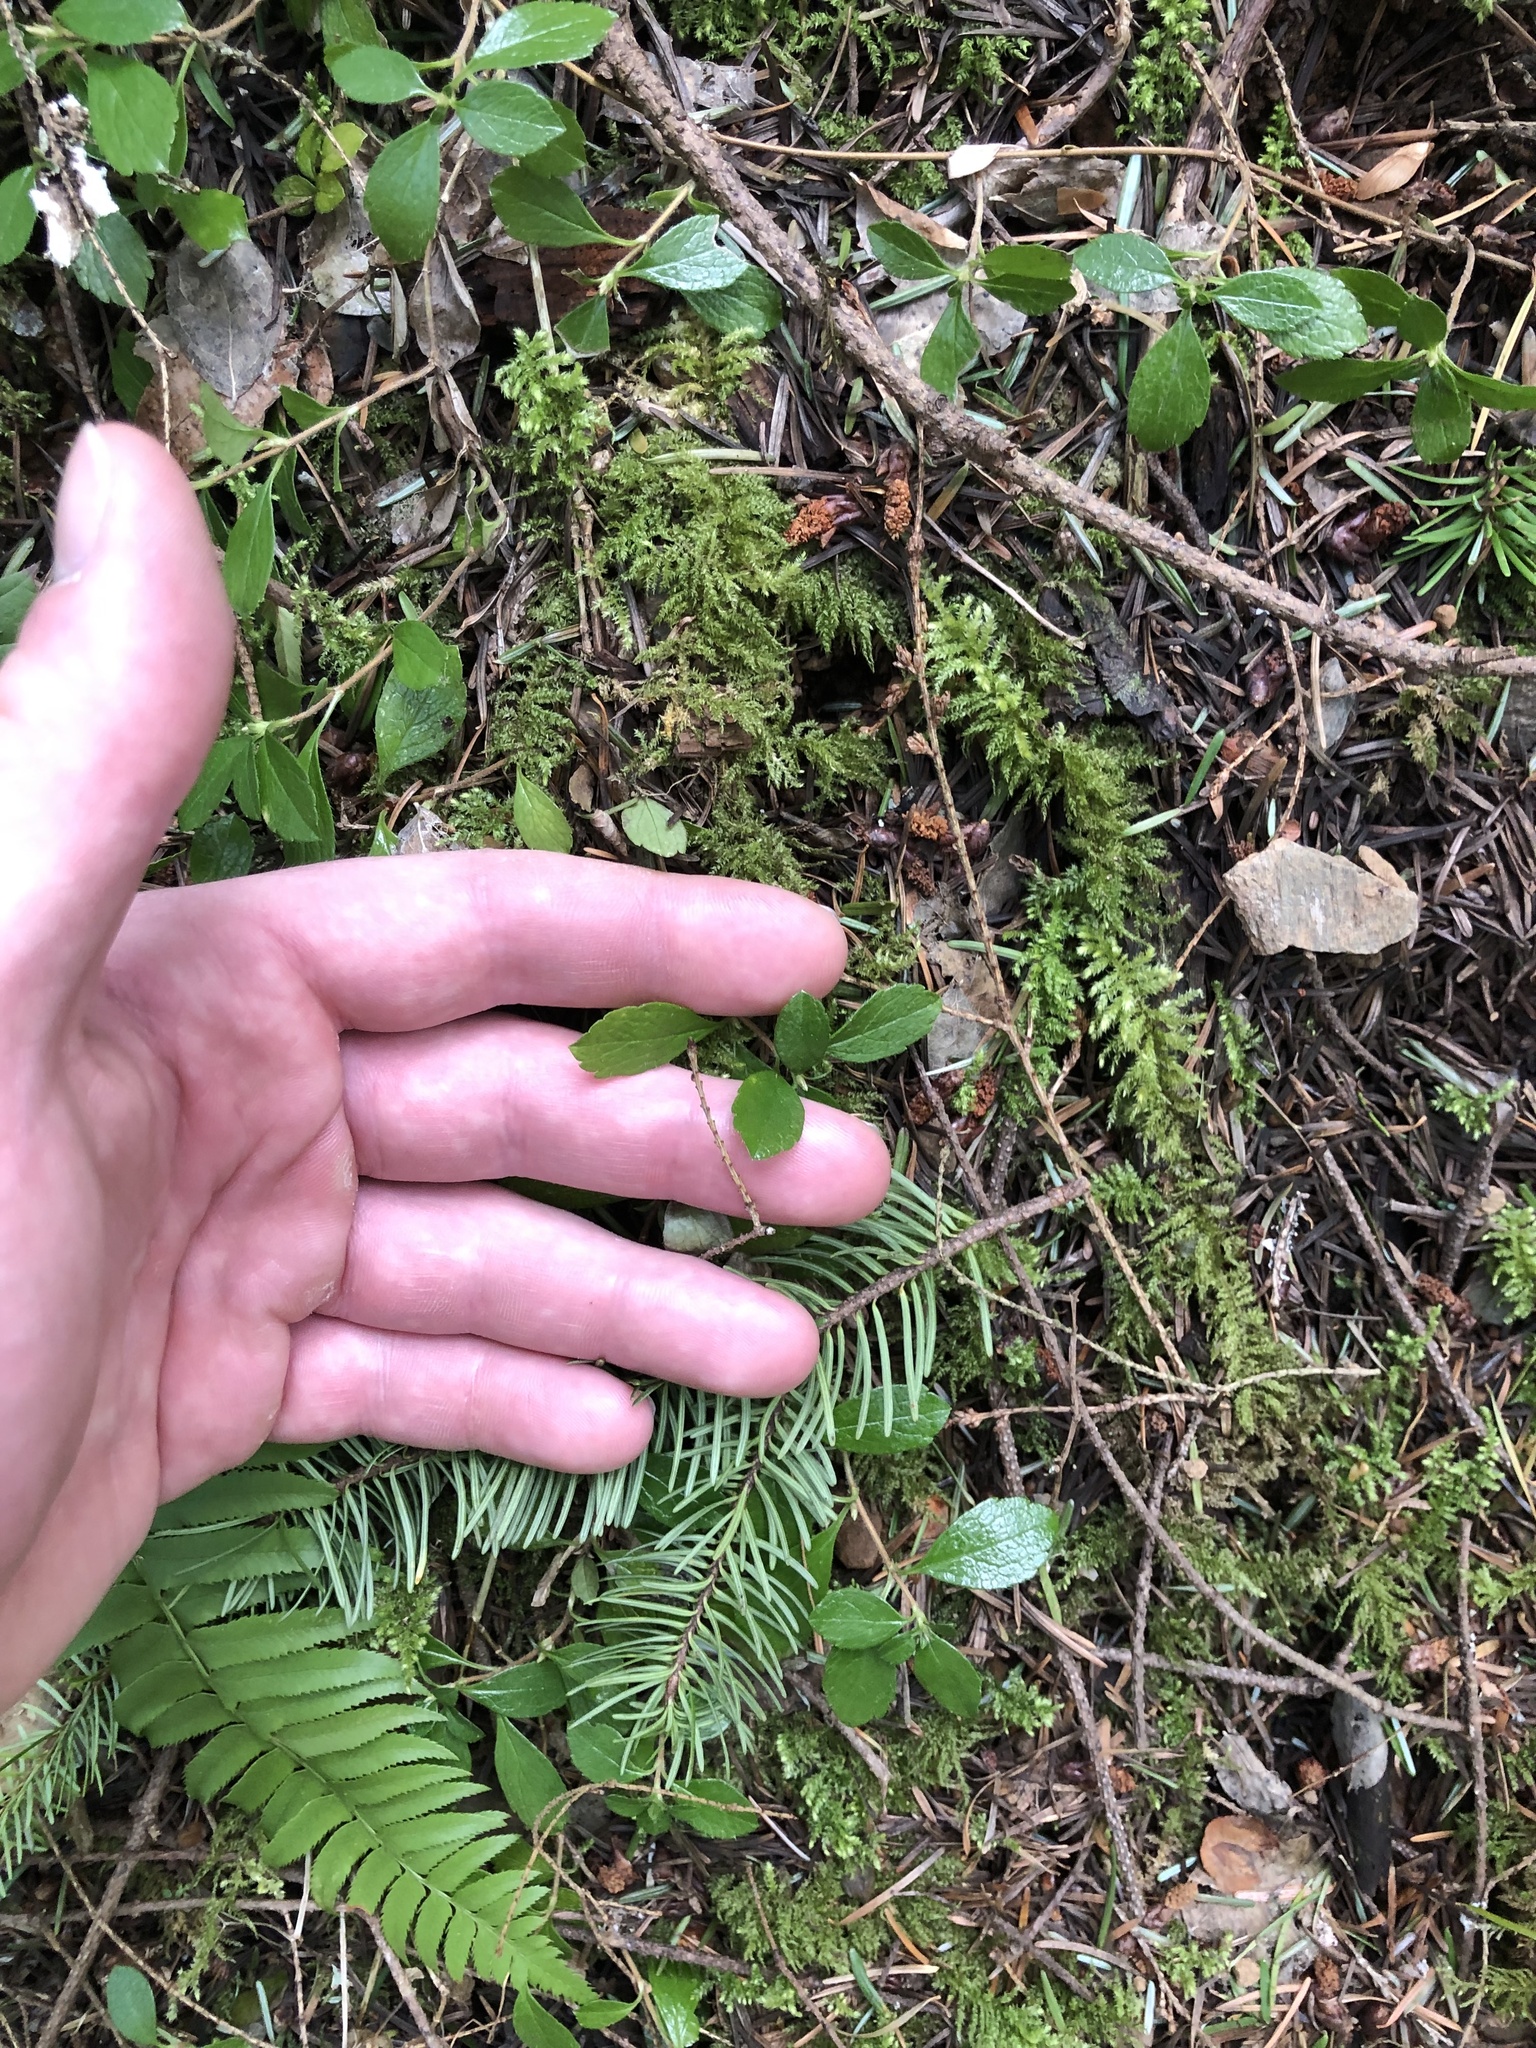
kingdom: Plantae
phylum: Tracheophyta
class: Magnoliopsida
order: Dipsacales
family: Caprifoliaceae
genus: Linnaea
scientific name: Linnaea borealis
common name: Twinflower
